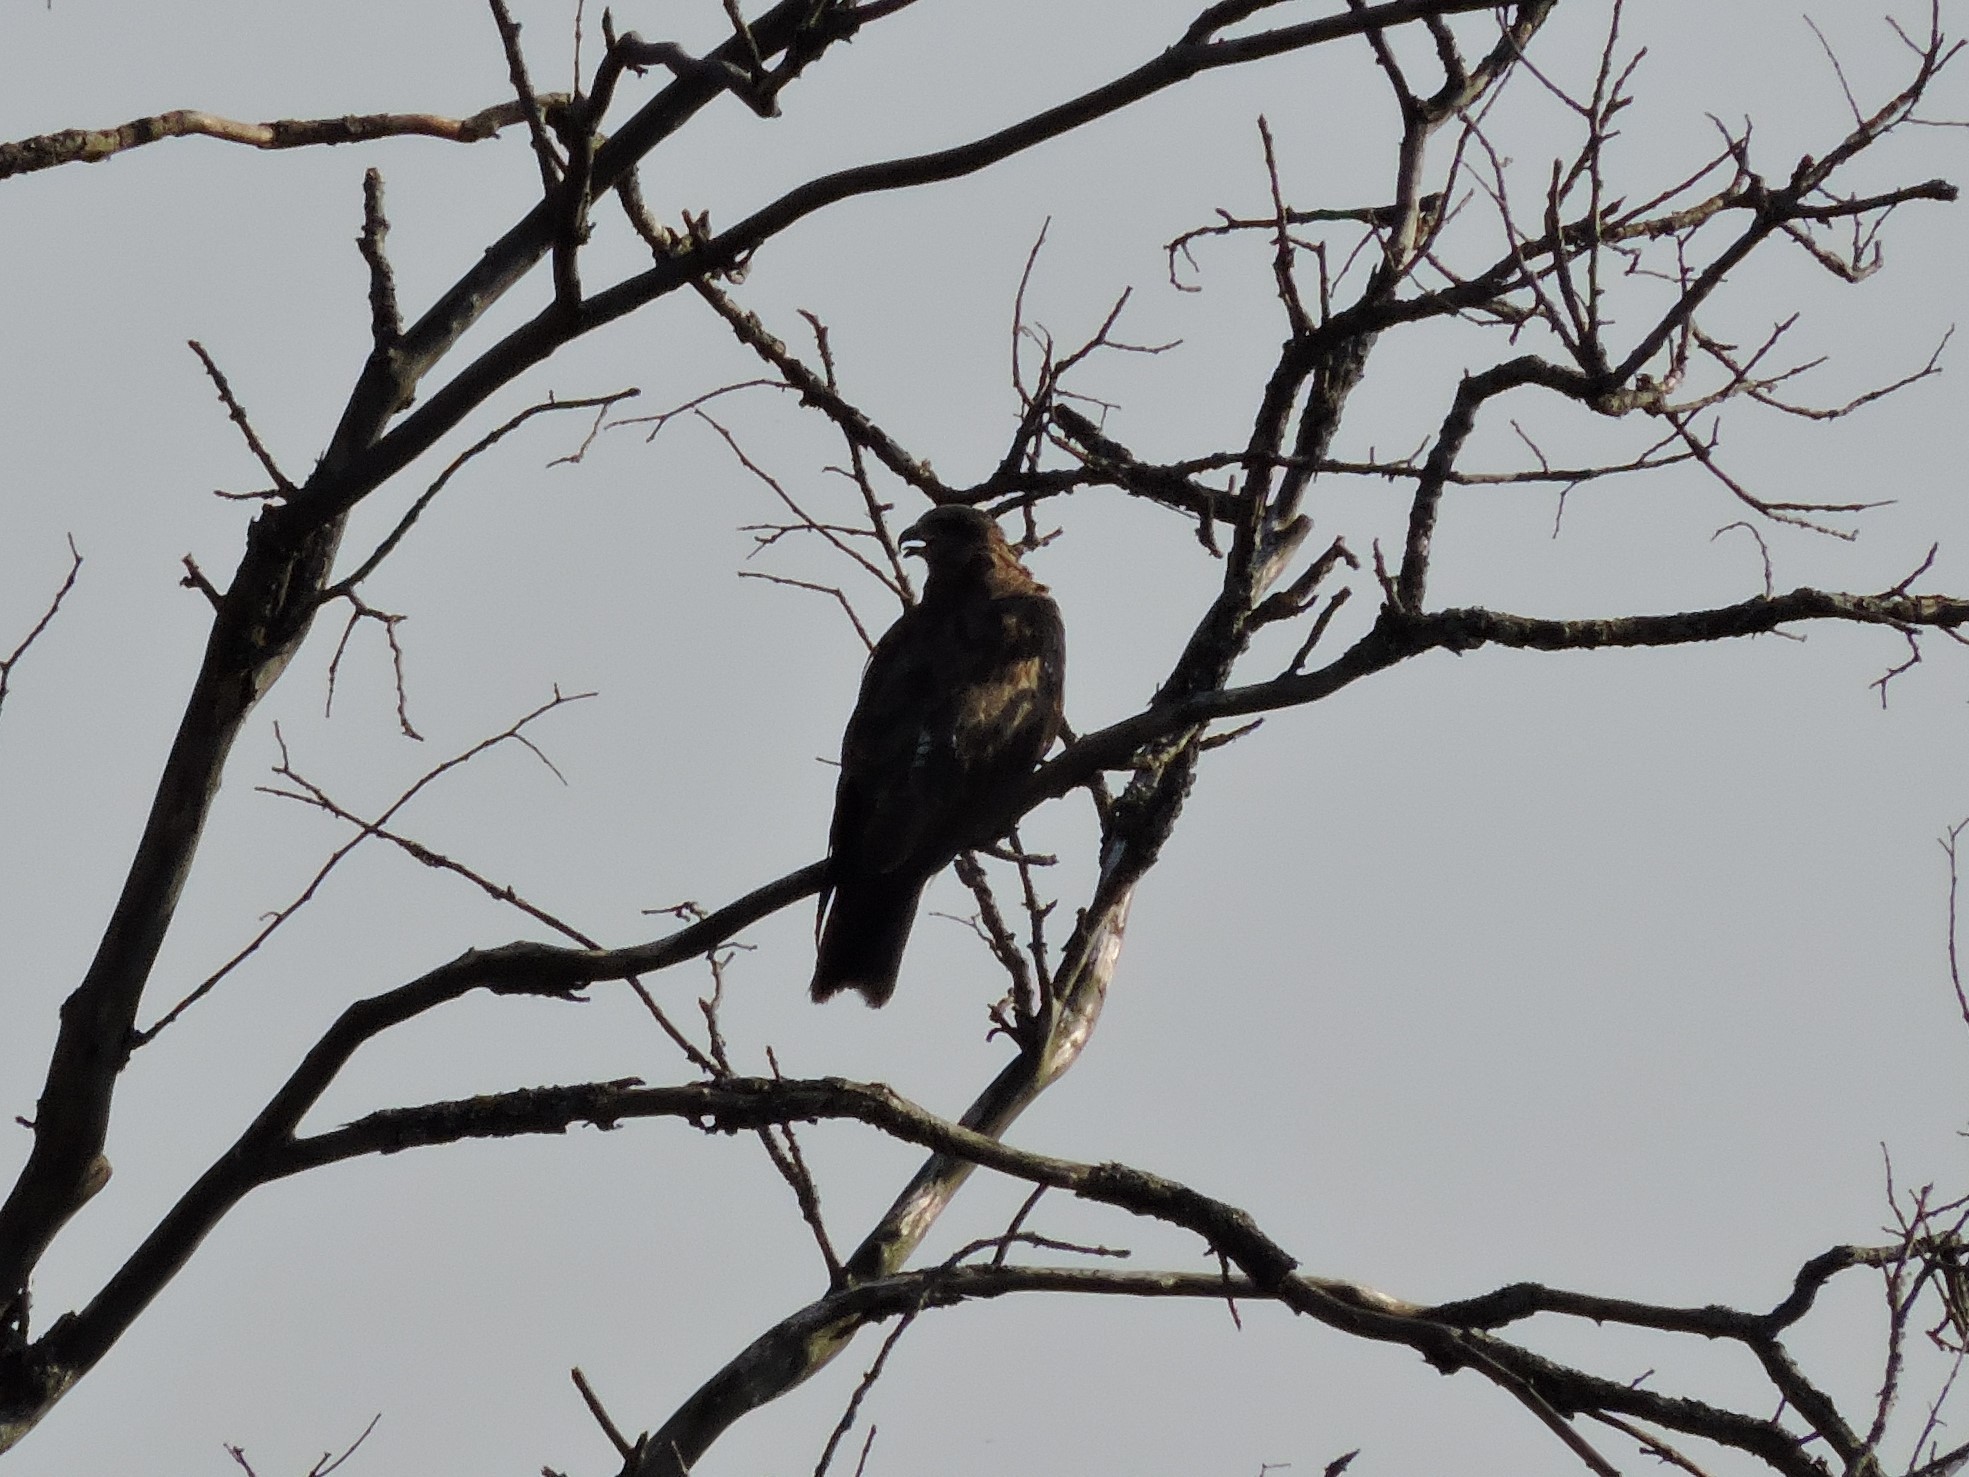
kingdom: Animalia
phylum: Chordata
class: Aves
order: Accipitriformes
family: Accipitridae
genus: Milvus
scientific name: Milvus migrans
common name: Black kite
